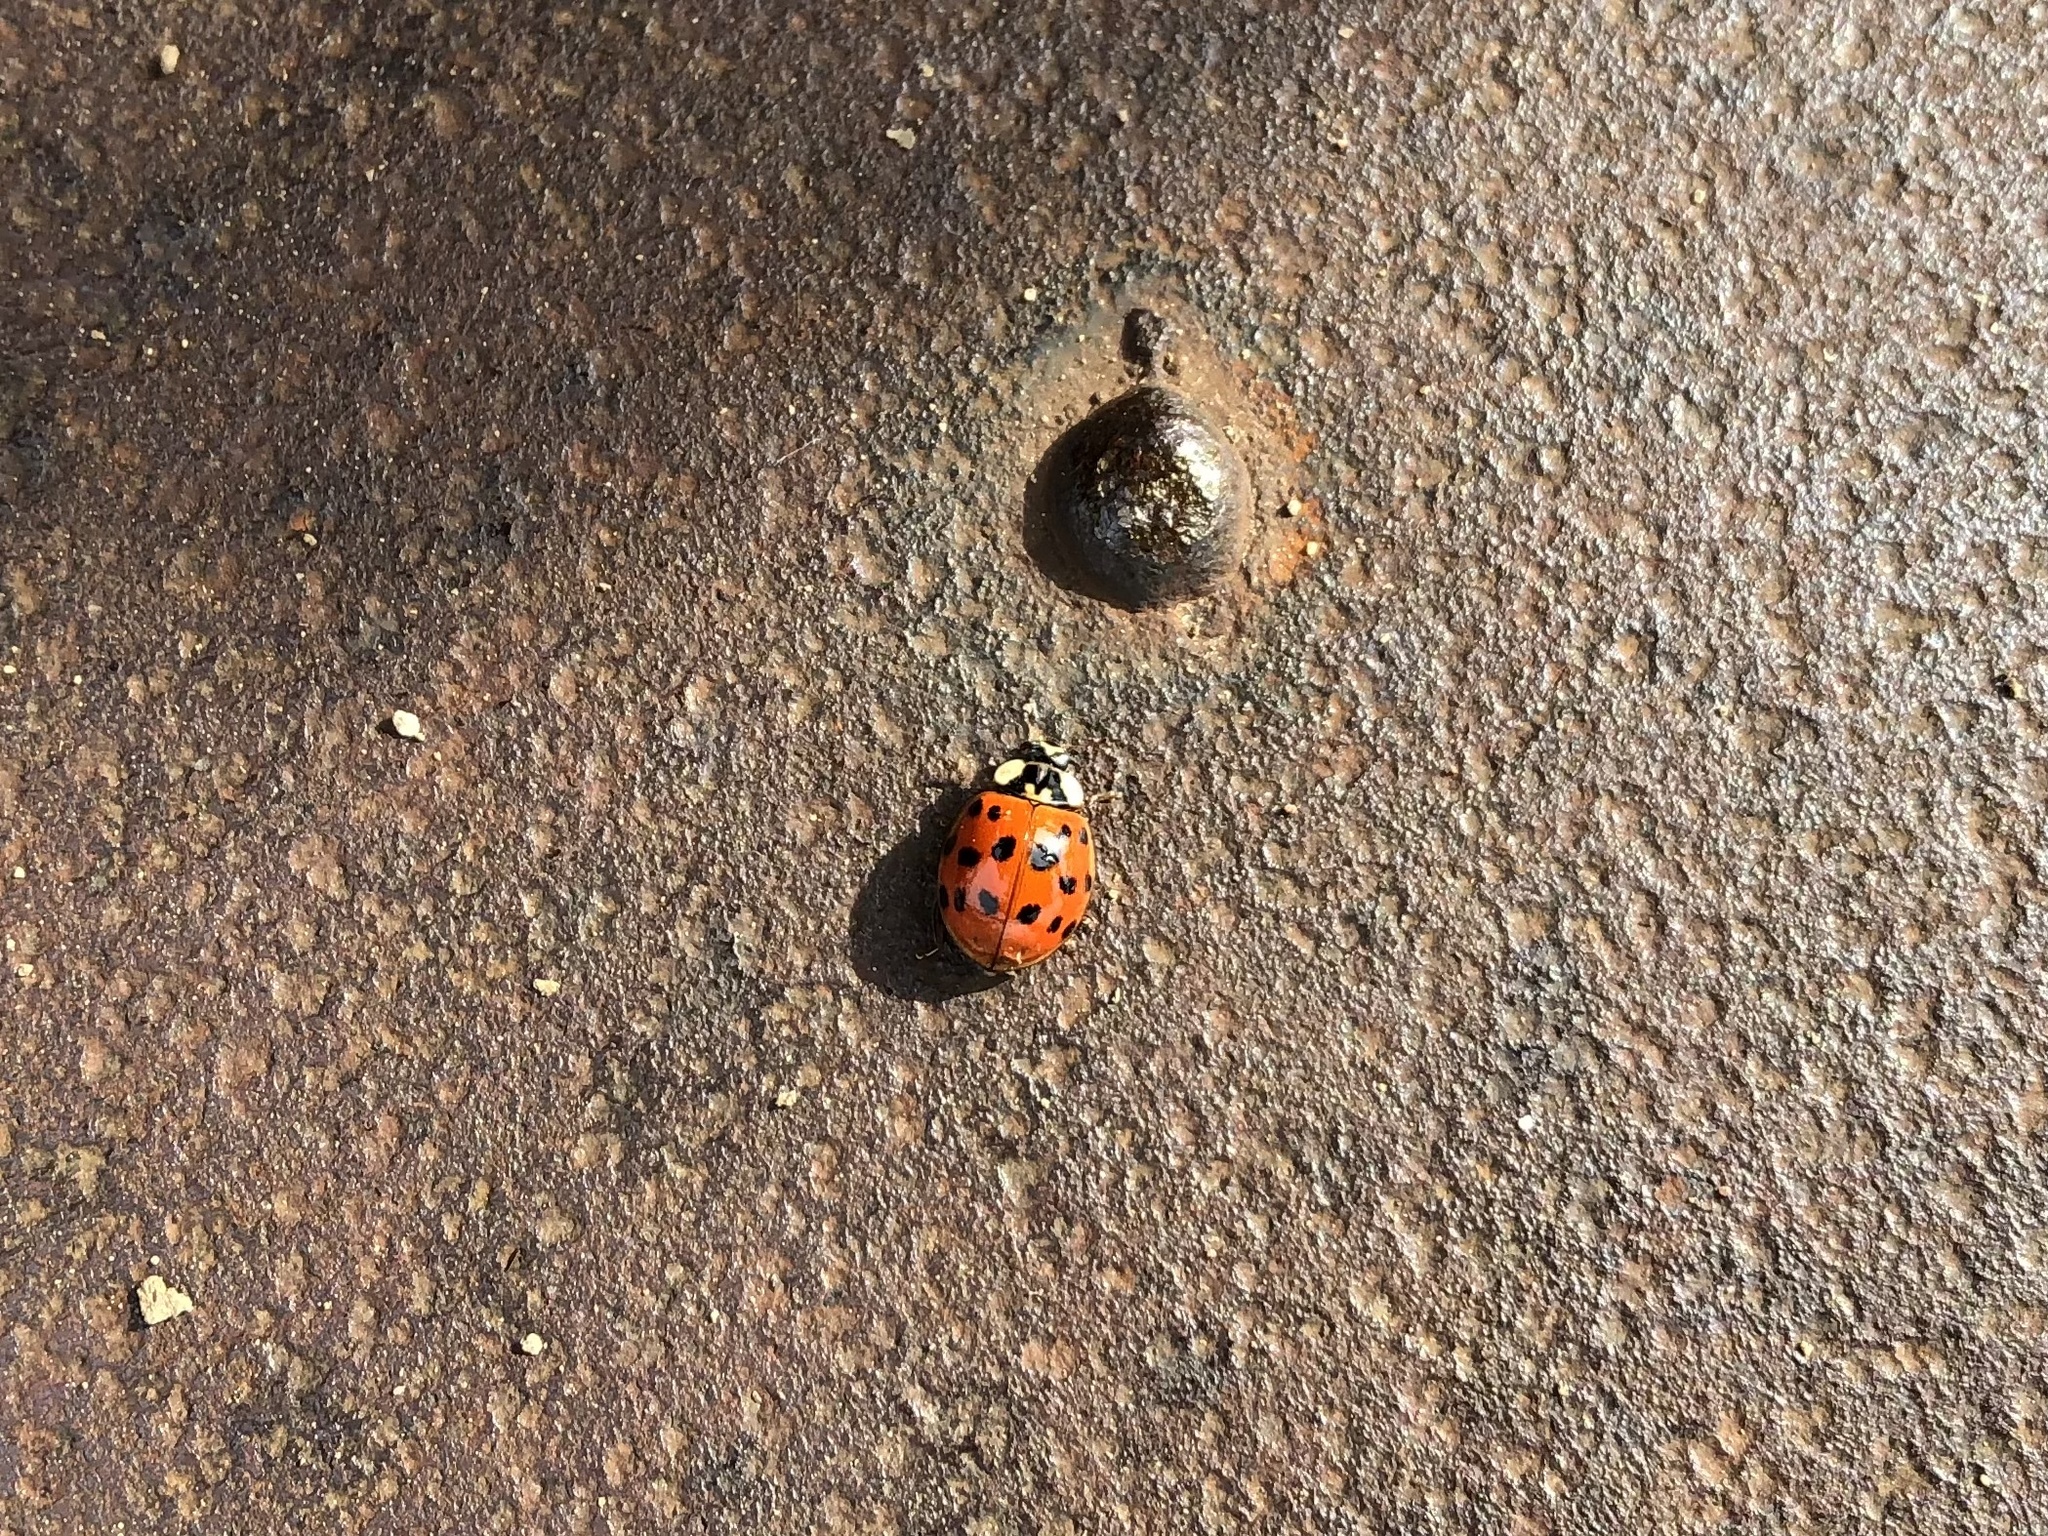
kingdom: Animalia
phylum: Arthropoda
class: Insecta
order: Coleoptera
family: Coccinellidae
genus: Harmonia
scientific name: Harmonia axyridis
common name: Harlequin ladybird
